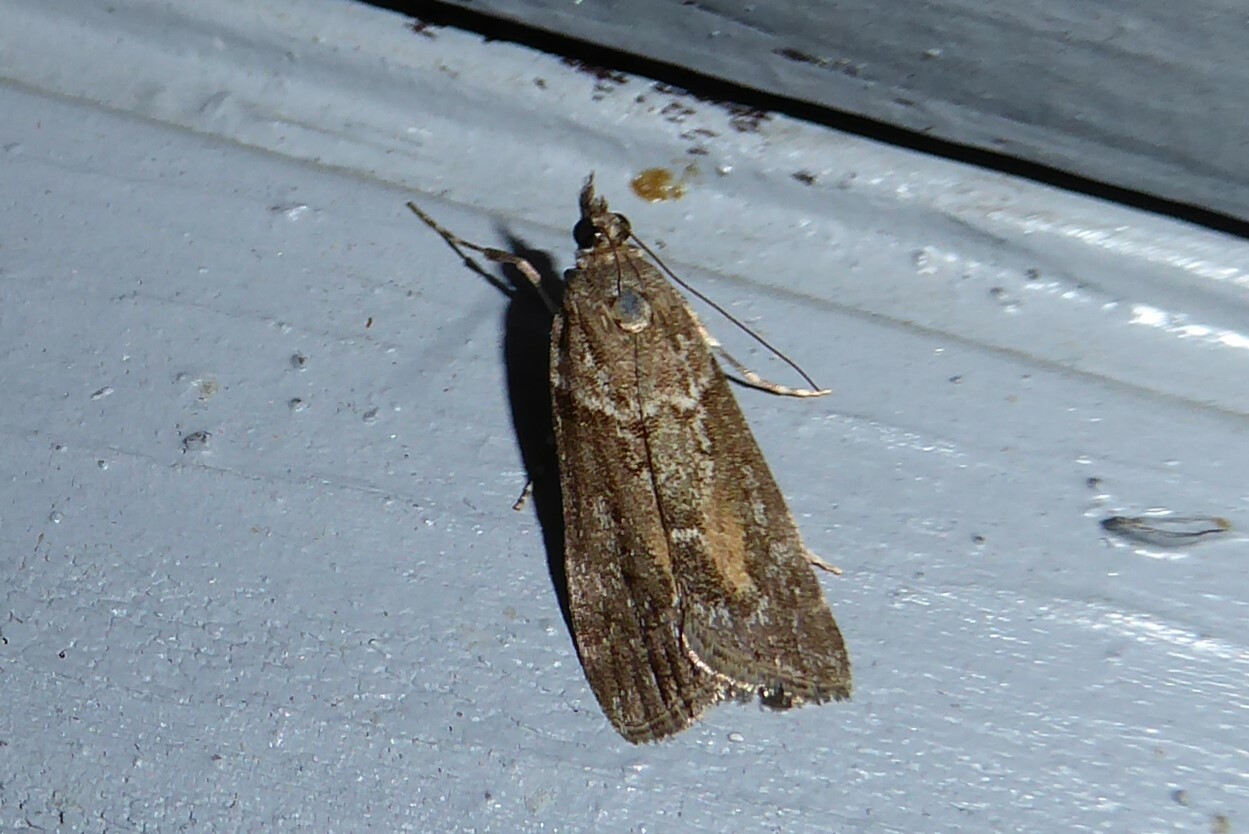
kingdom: Animalia
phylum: Arthropoda
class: Insecta
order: Lepidoptera
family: Crambidae
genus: Eudonia
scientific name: Eudonia submarginalis
